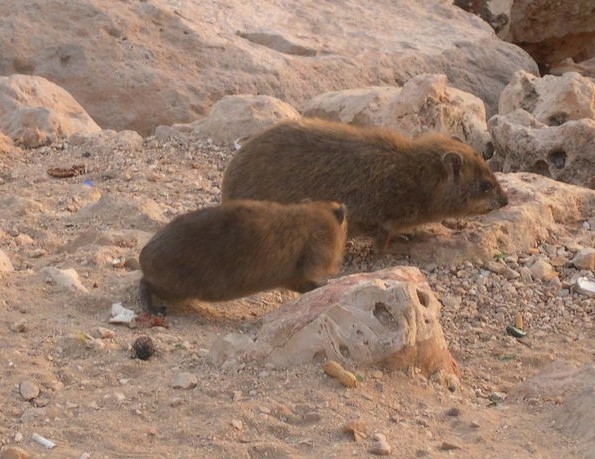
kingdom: Animalia
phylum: Chordata
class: Mammalia
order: Hyracoidea
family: Procaviidae
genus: Procavia
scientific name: Procavia capensis
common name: Rock hyrax
